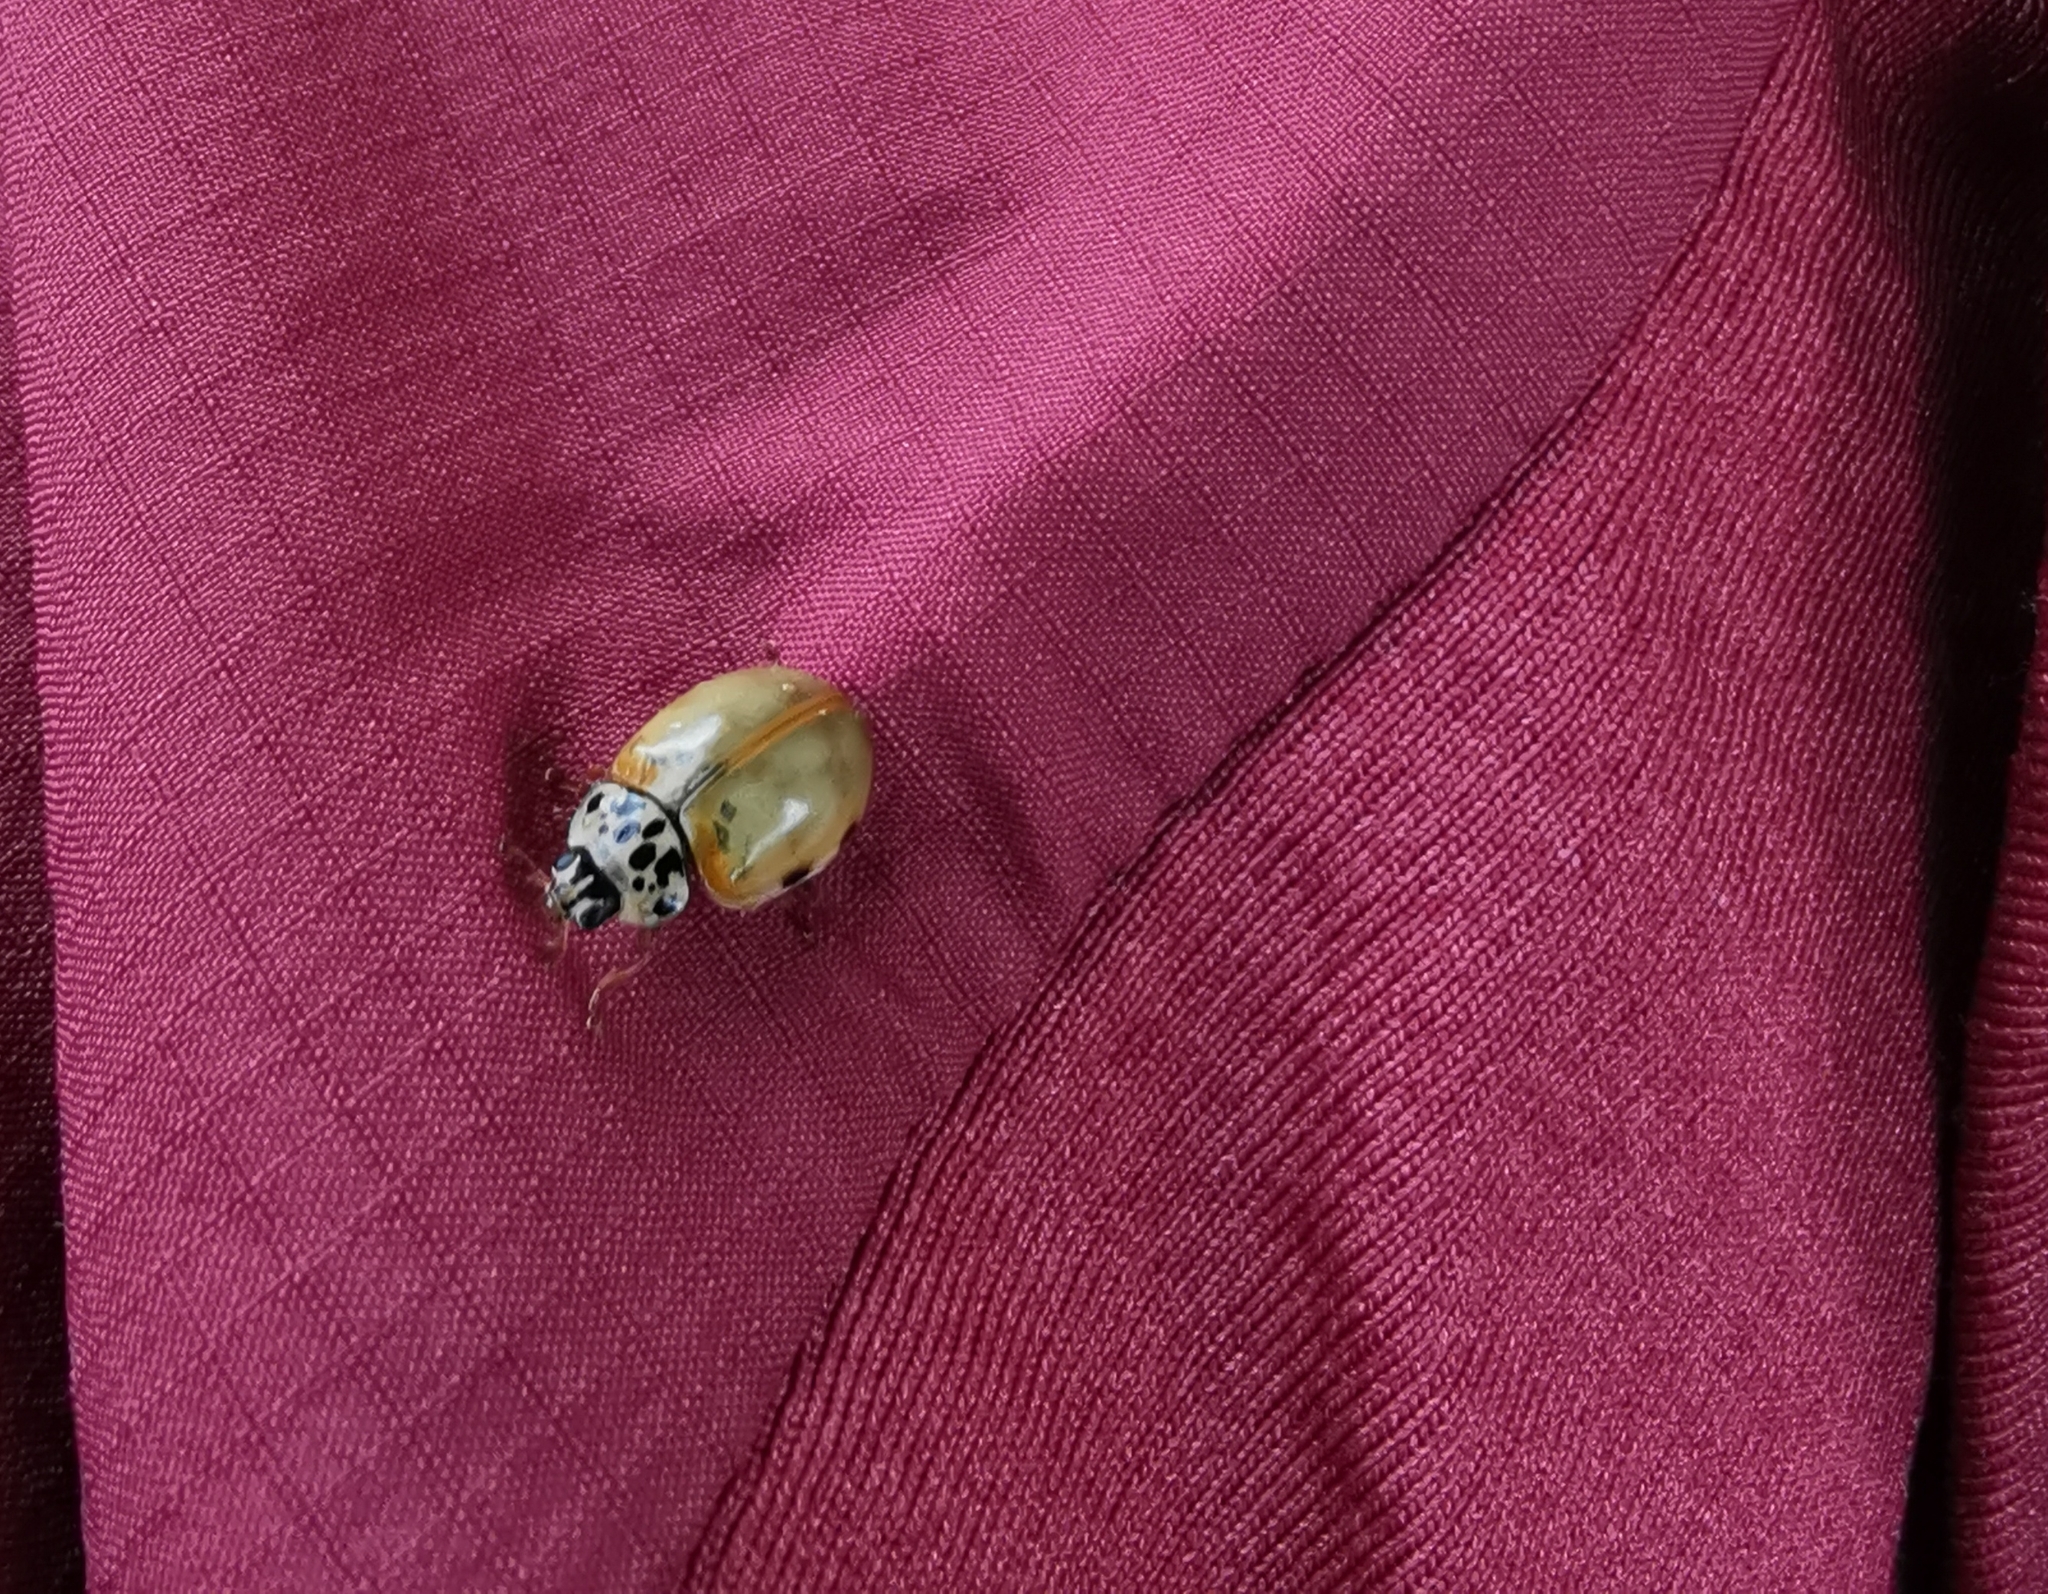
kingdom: Animalia
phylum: Arthropoda
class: Insecta
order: Coleoptera
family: Coccinellidae
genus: Harmonia
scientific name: Harmonia quadripunctata
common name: Cream-streaked ladybird
